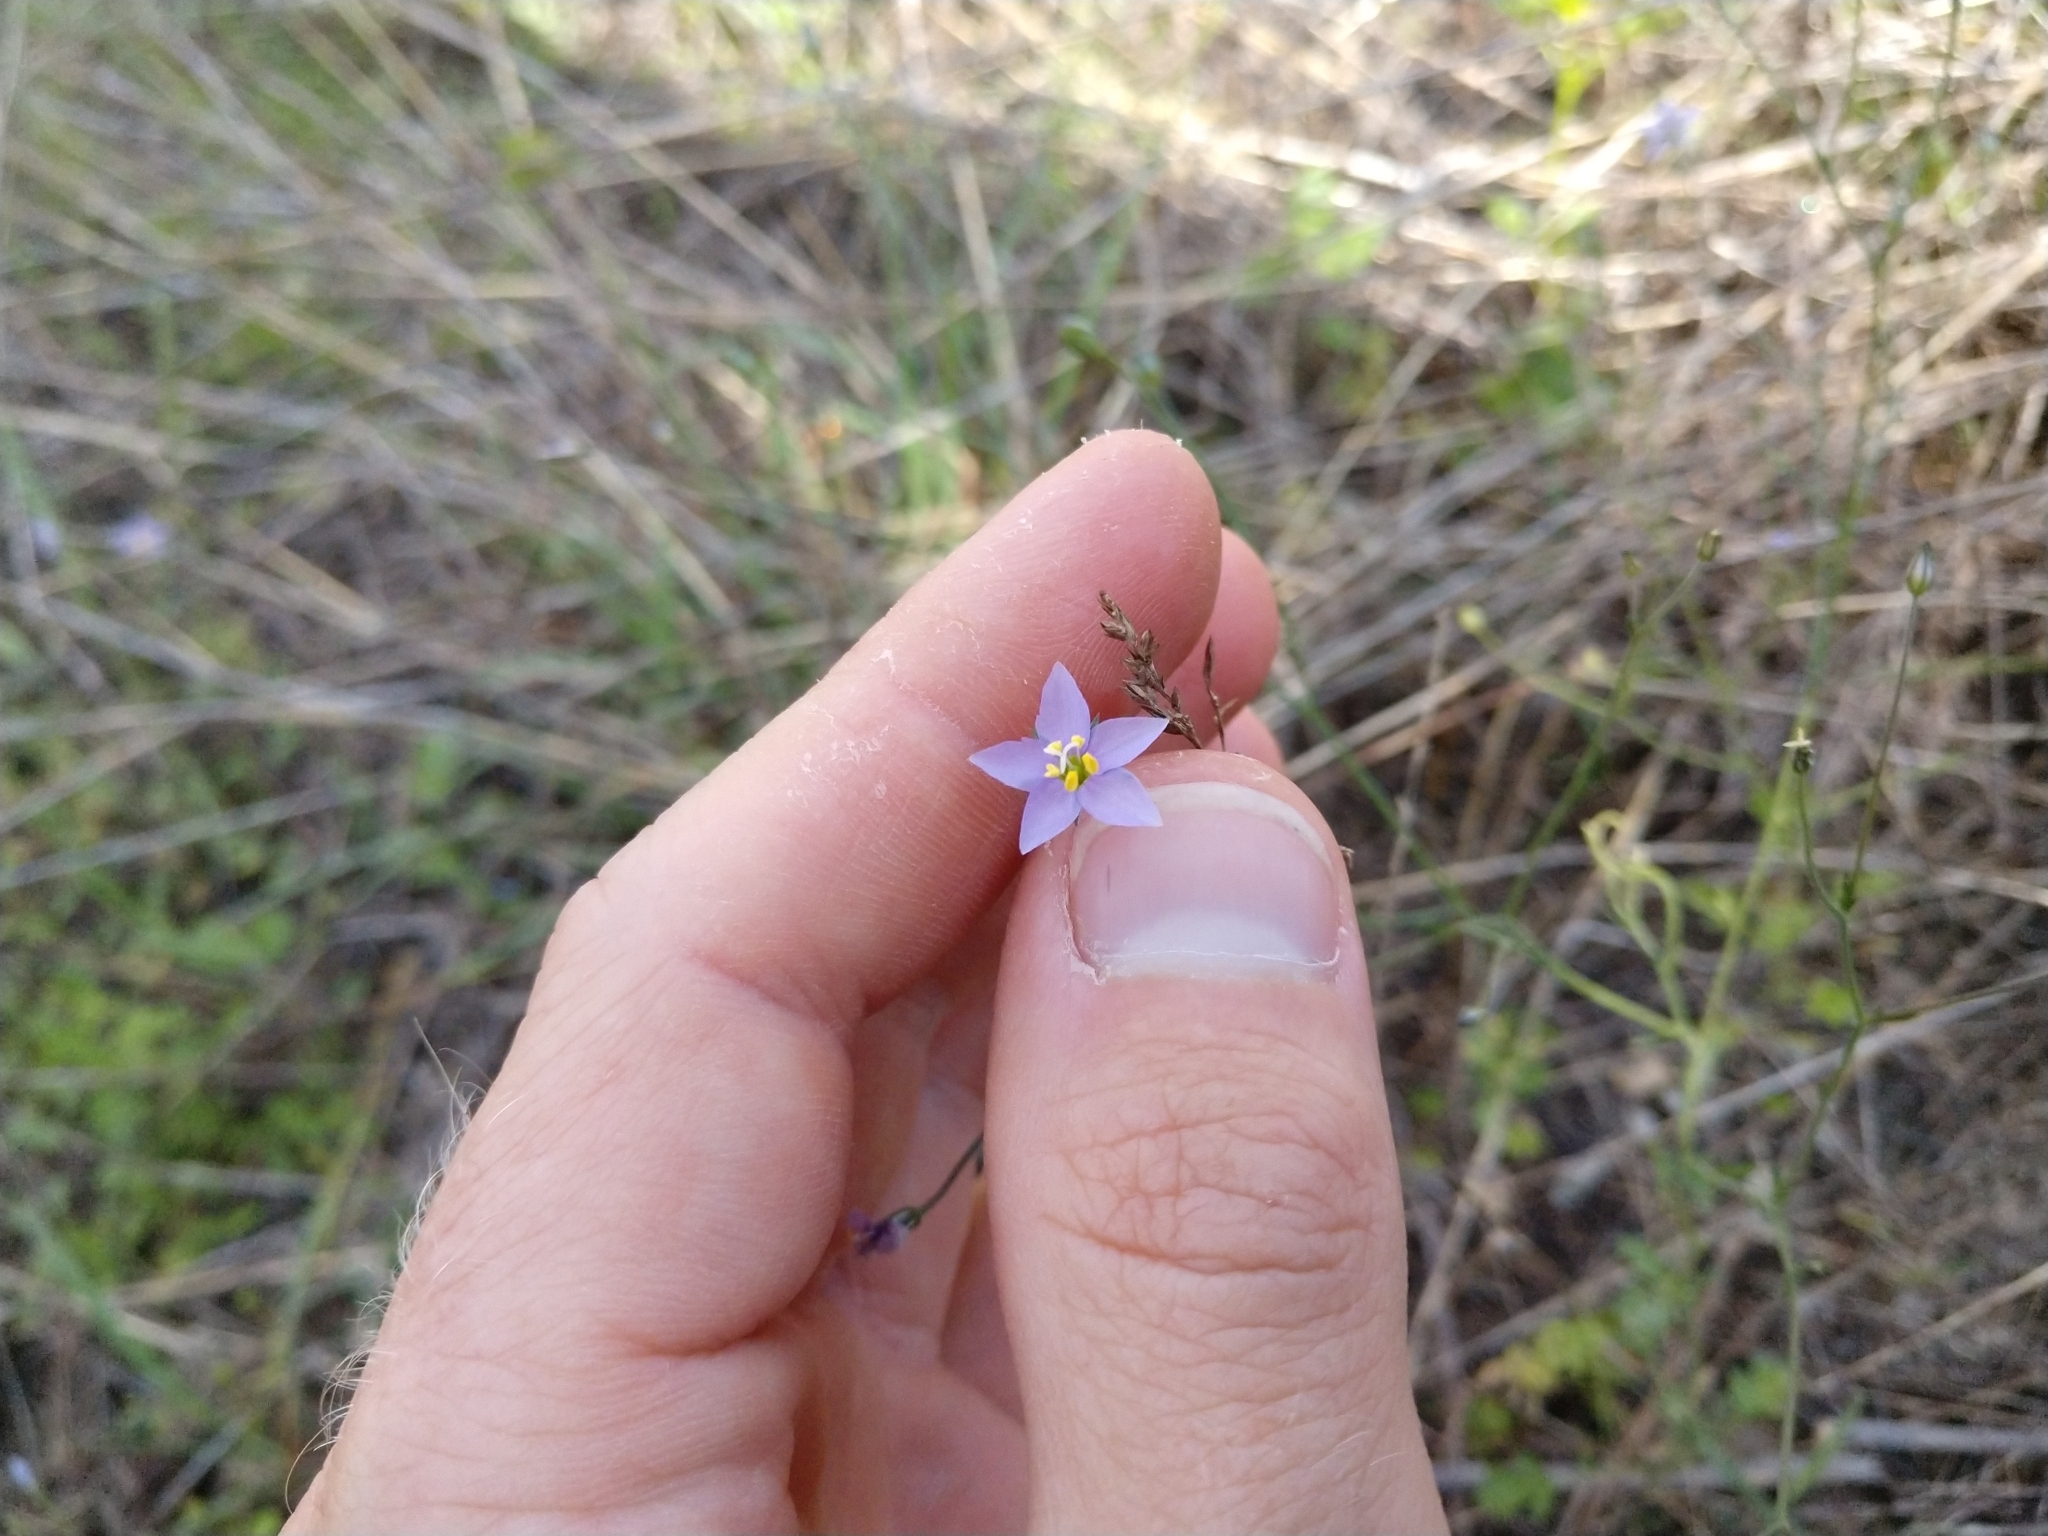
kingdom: Plantae
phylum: Tracheophyta
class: Magnoliopsida
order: Ericales
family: Polemoniaceae
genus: Giliastrum
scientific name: Giliastrum incisum
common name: Splitleaf gilia
